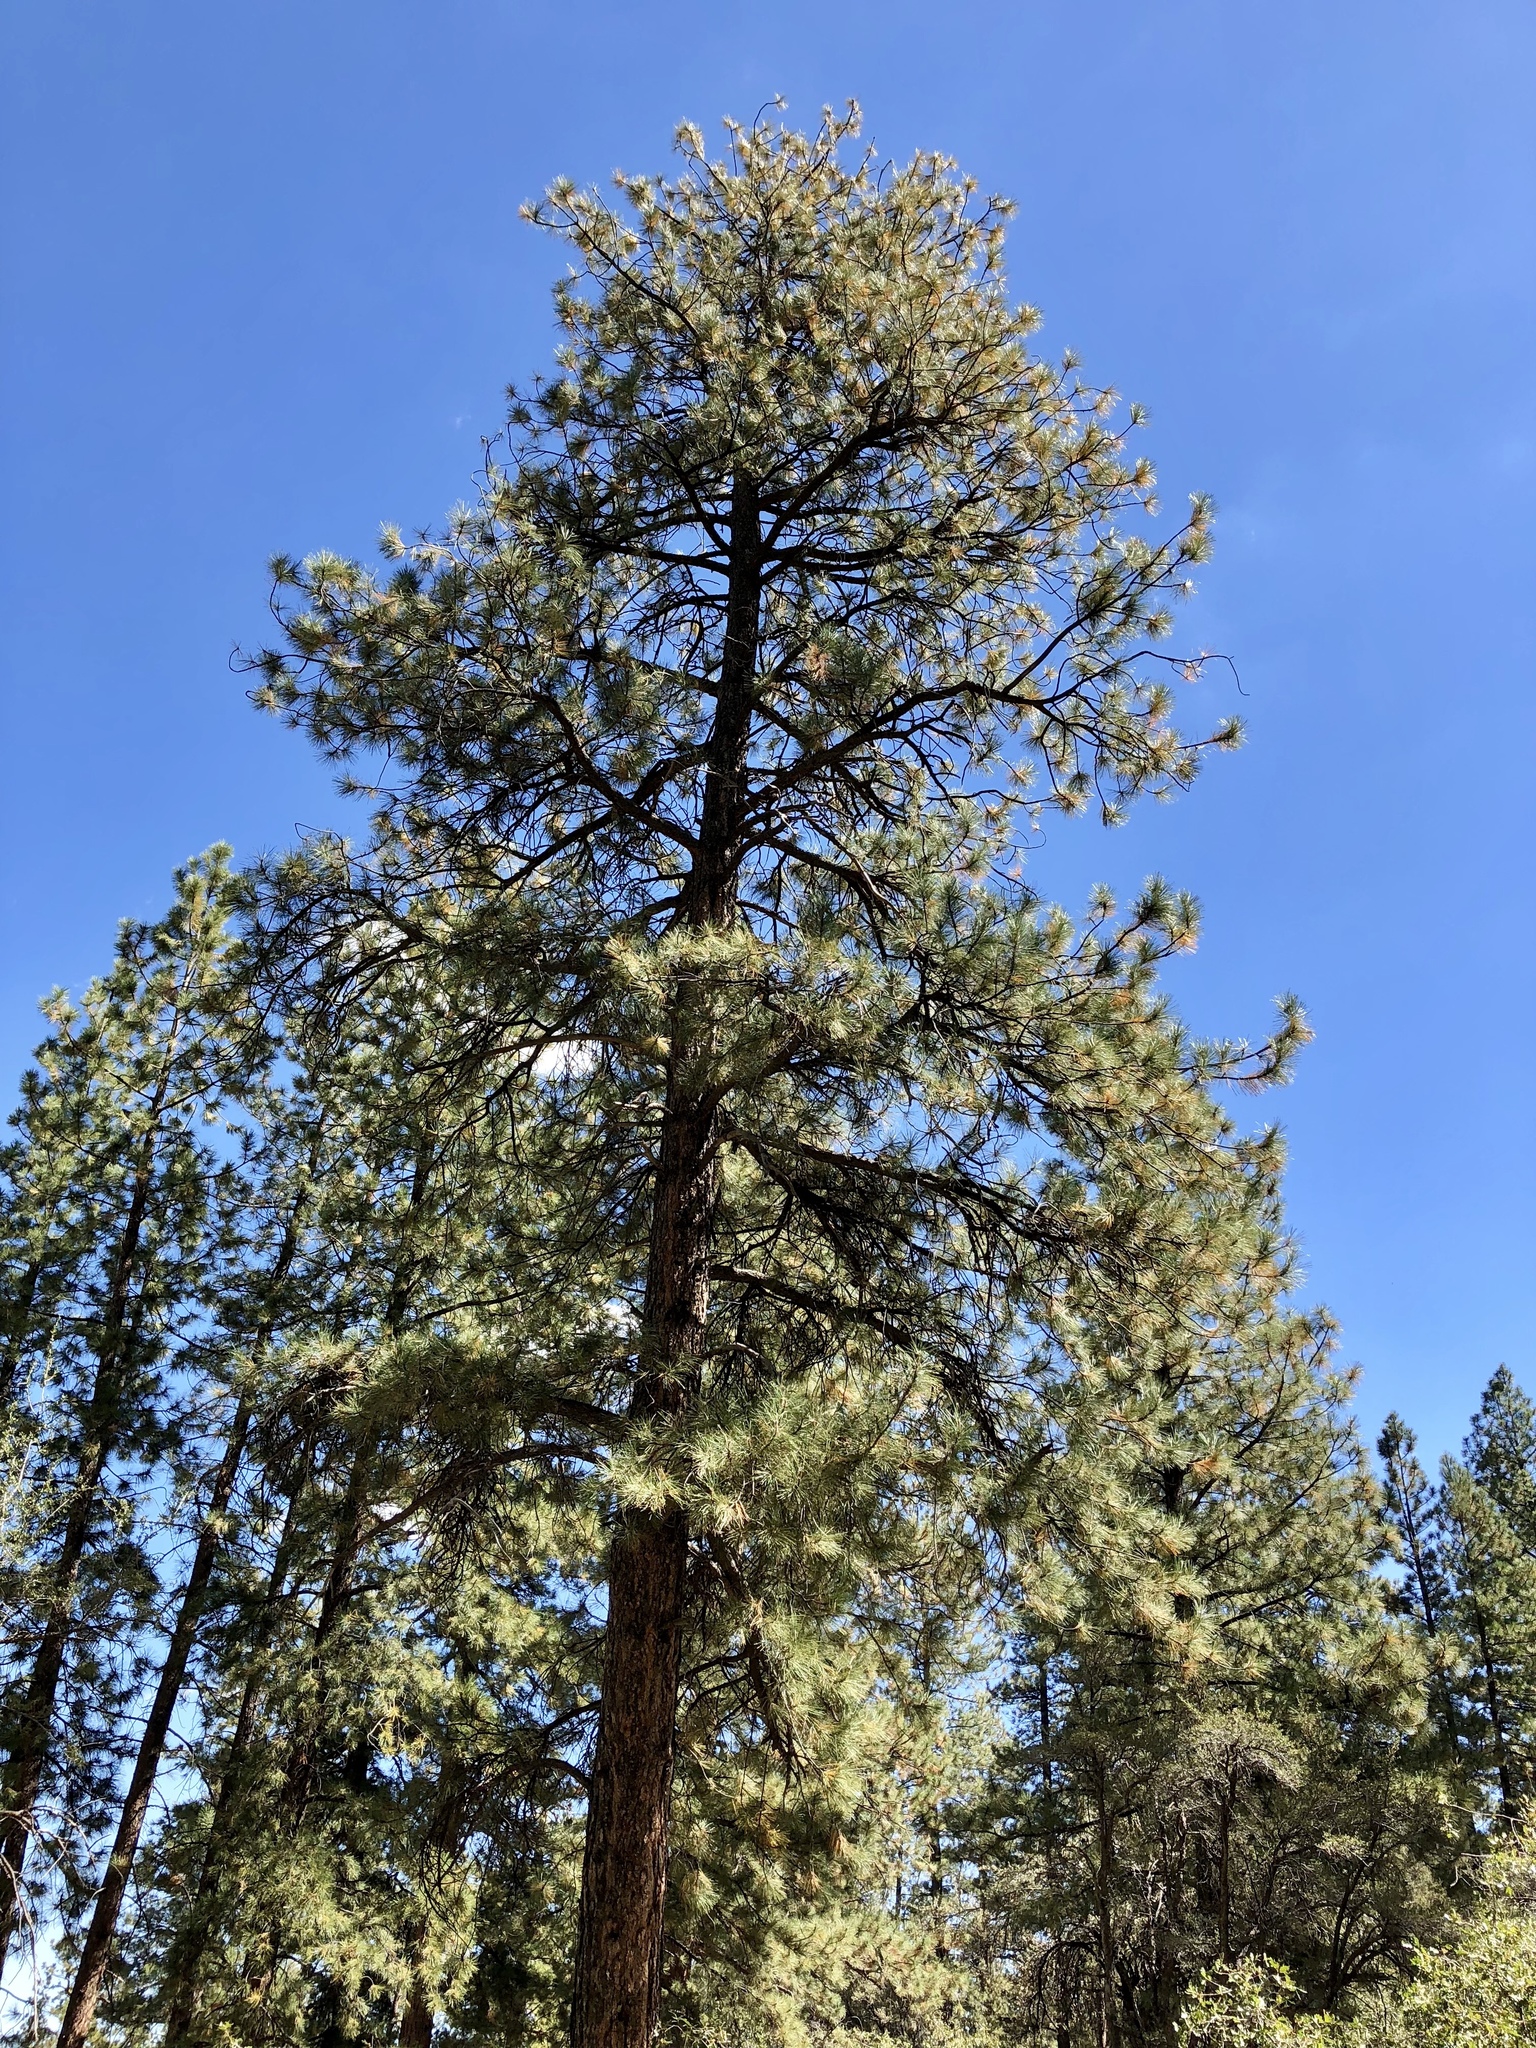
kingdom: Plantae
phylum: Tracheophyta
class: Pinopsida
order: Pinales
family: Pinaceae
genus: Pinus
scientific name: Pinus ponderosa
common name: Western yellow-pine
